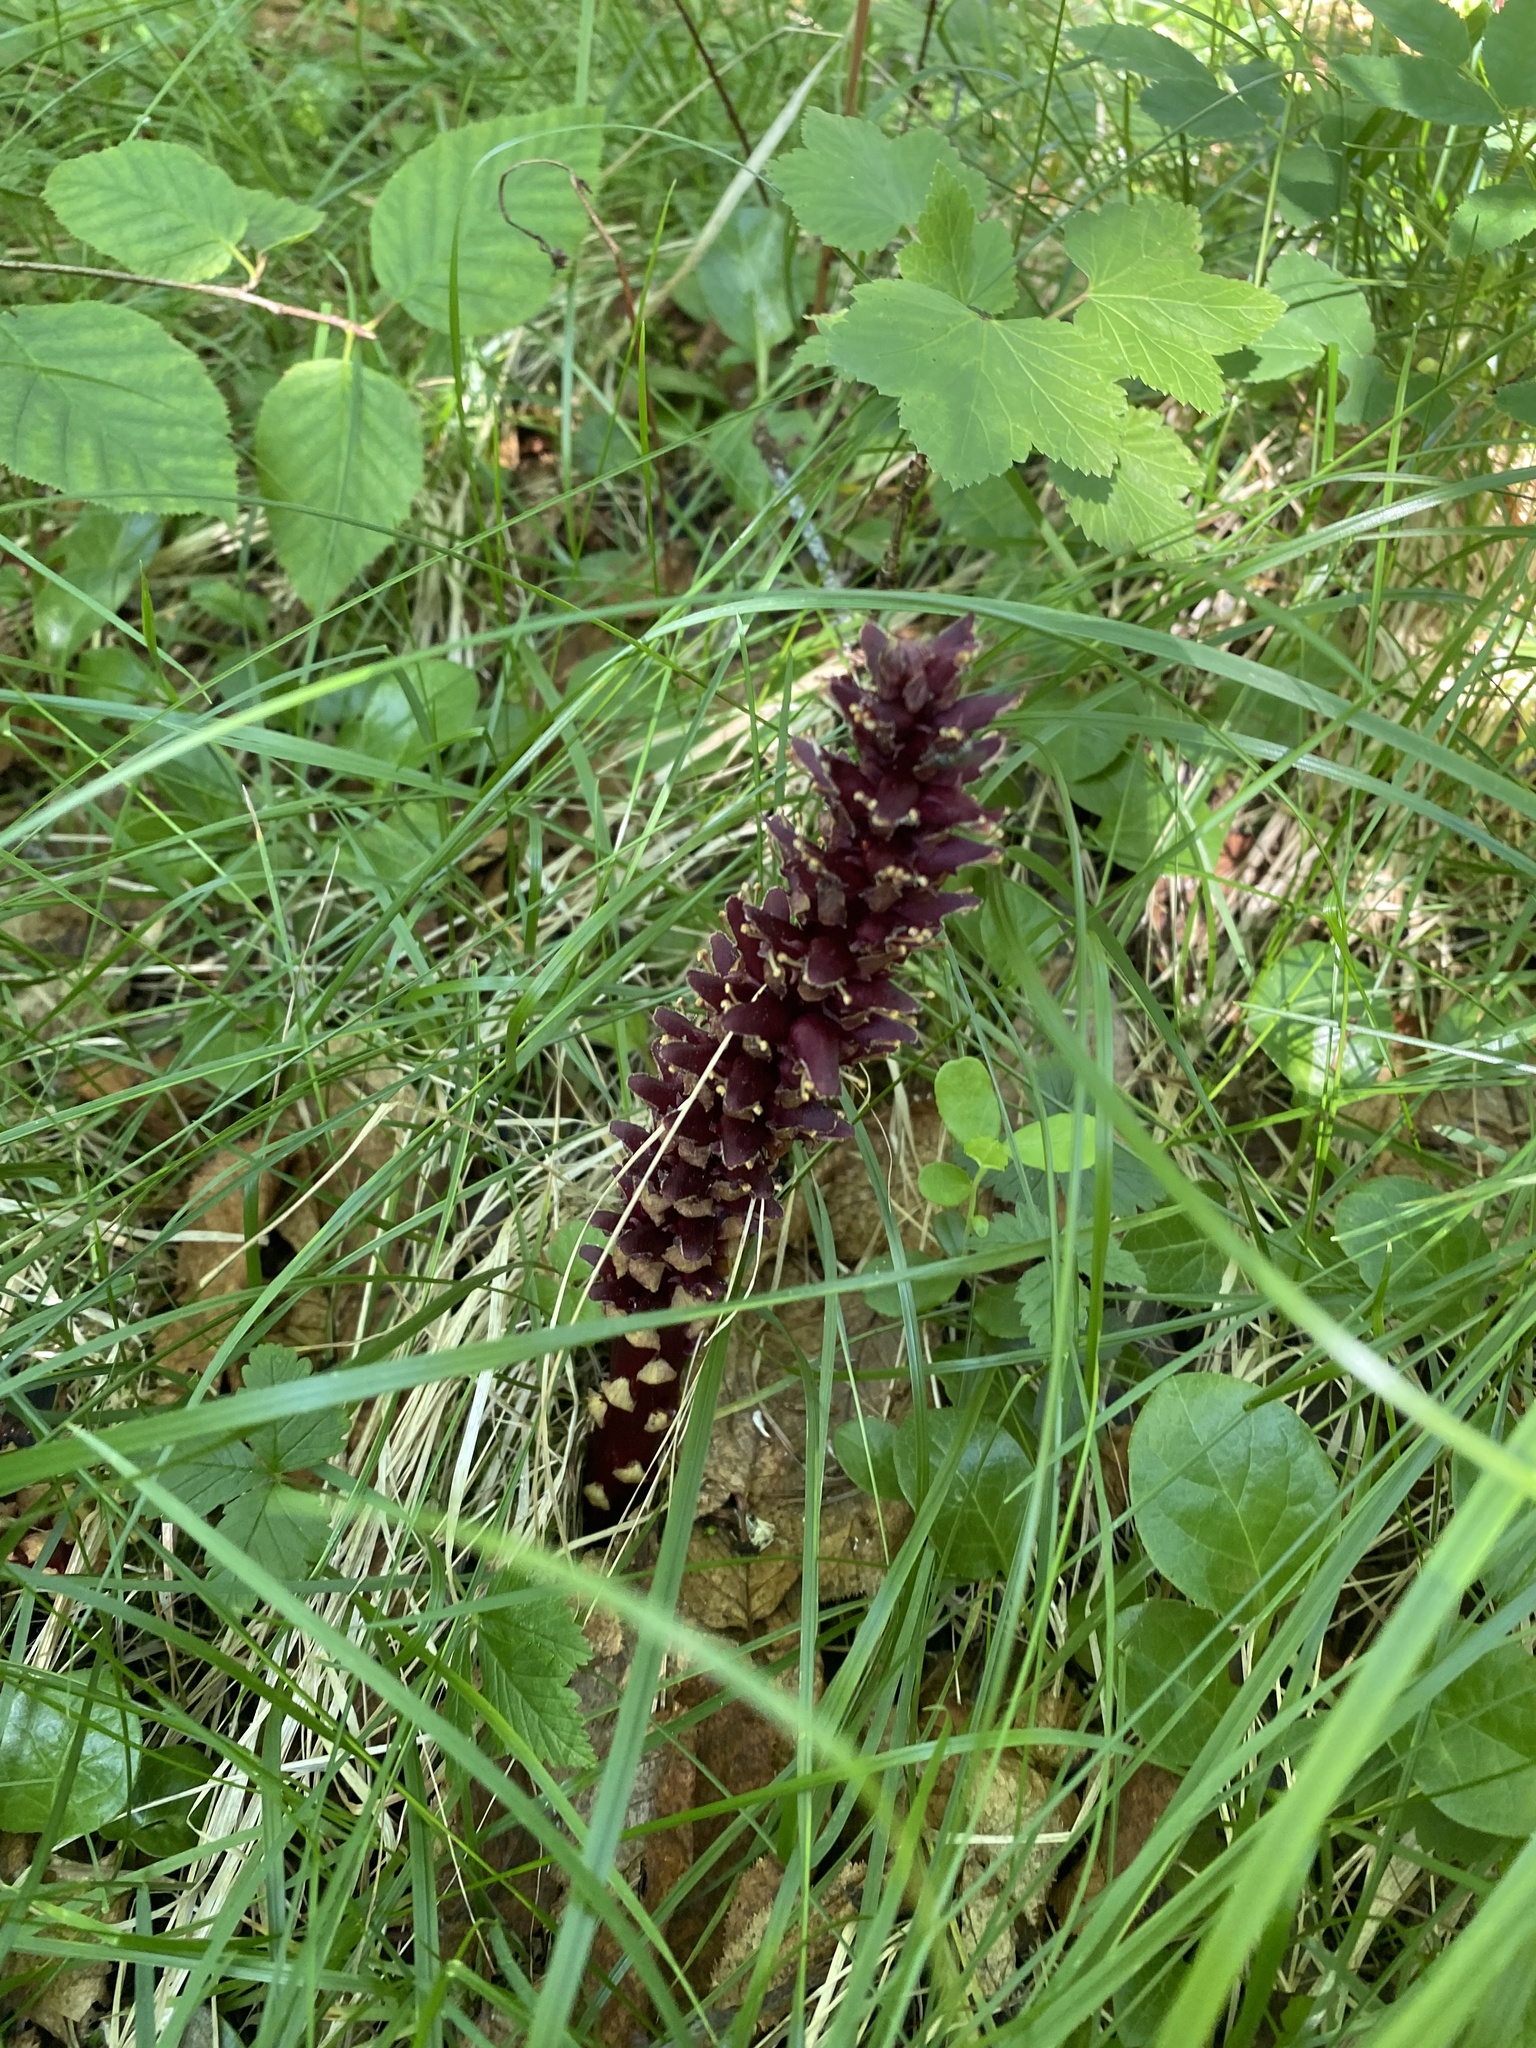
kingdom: Plantae
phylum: Tracheophyta
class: Magnoliopsida
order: Lamiales
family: Orobanchaceae
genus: Boschniakia
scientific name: Boschniakia rossica
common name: Poque
